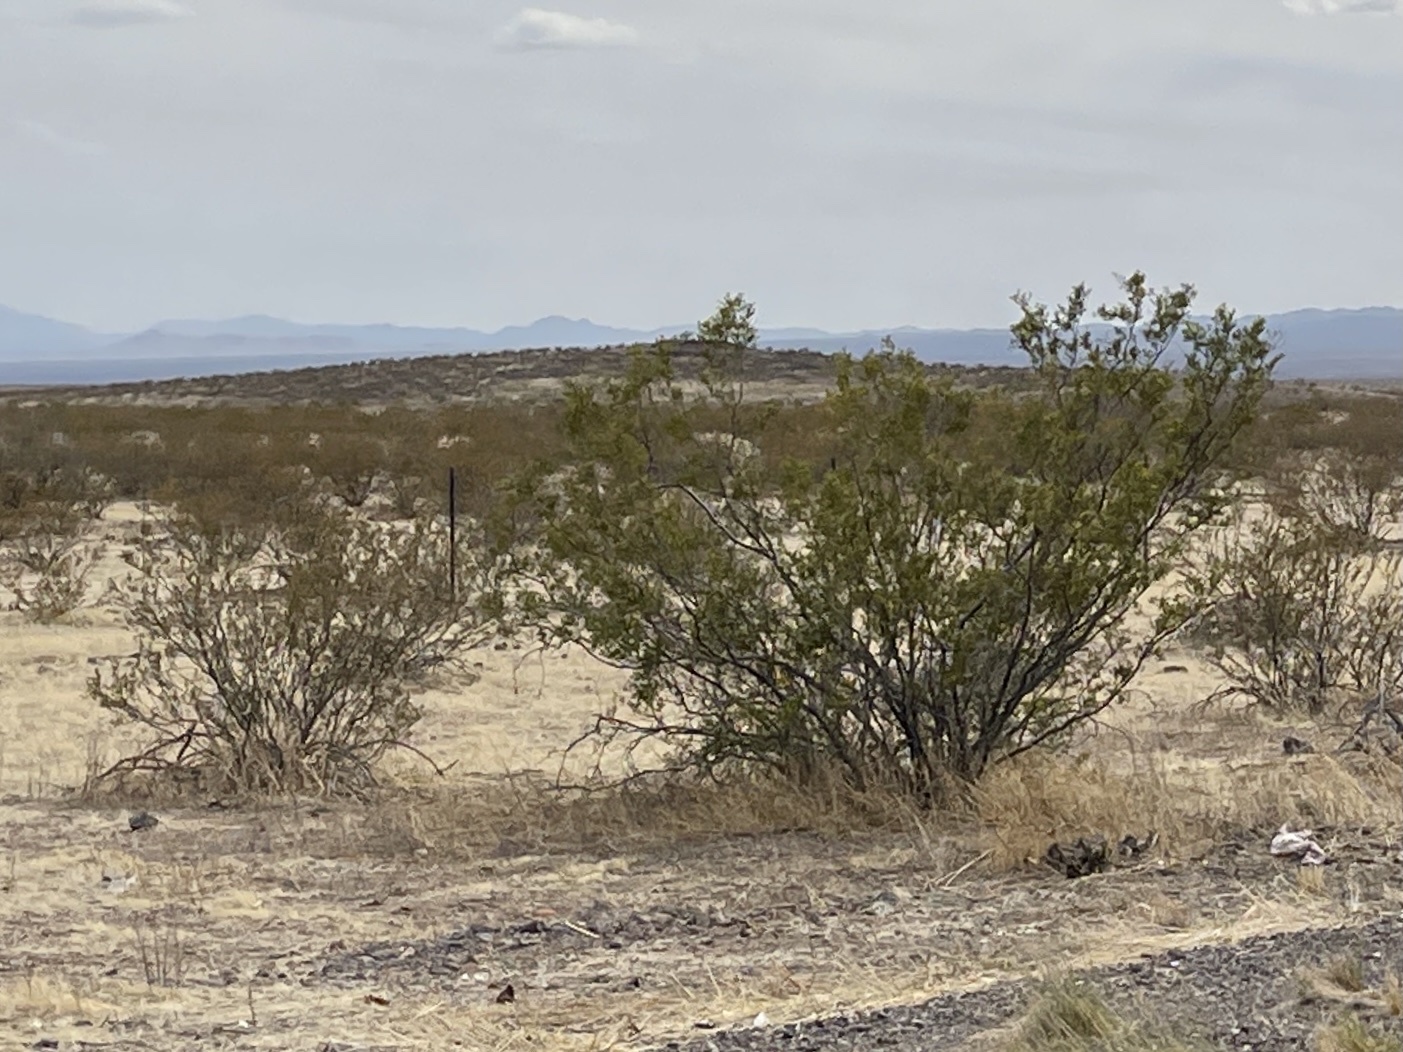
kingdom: Plantae
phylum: Tracheophyta
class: Magnoliopsida
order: Zygophyllales
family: Zygophyllaceae
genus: Larrea
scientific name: Larrea tridentata
